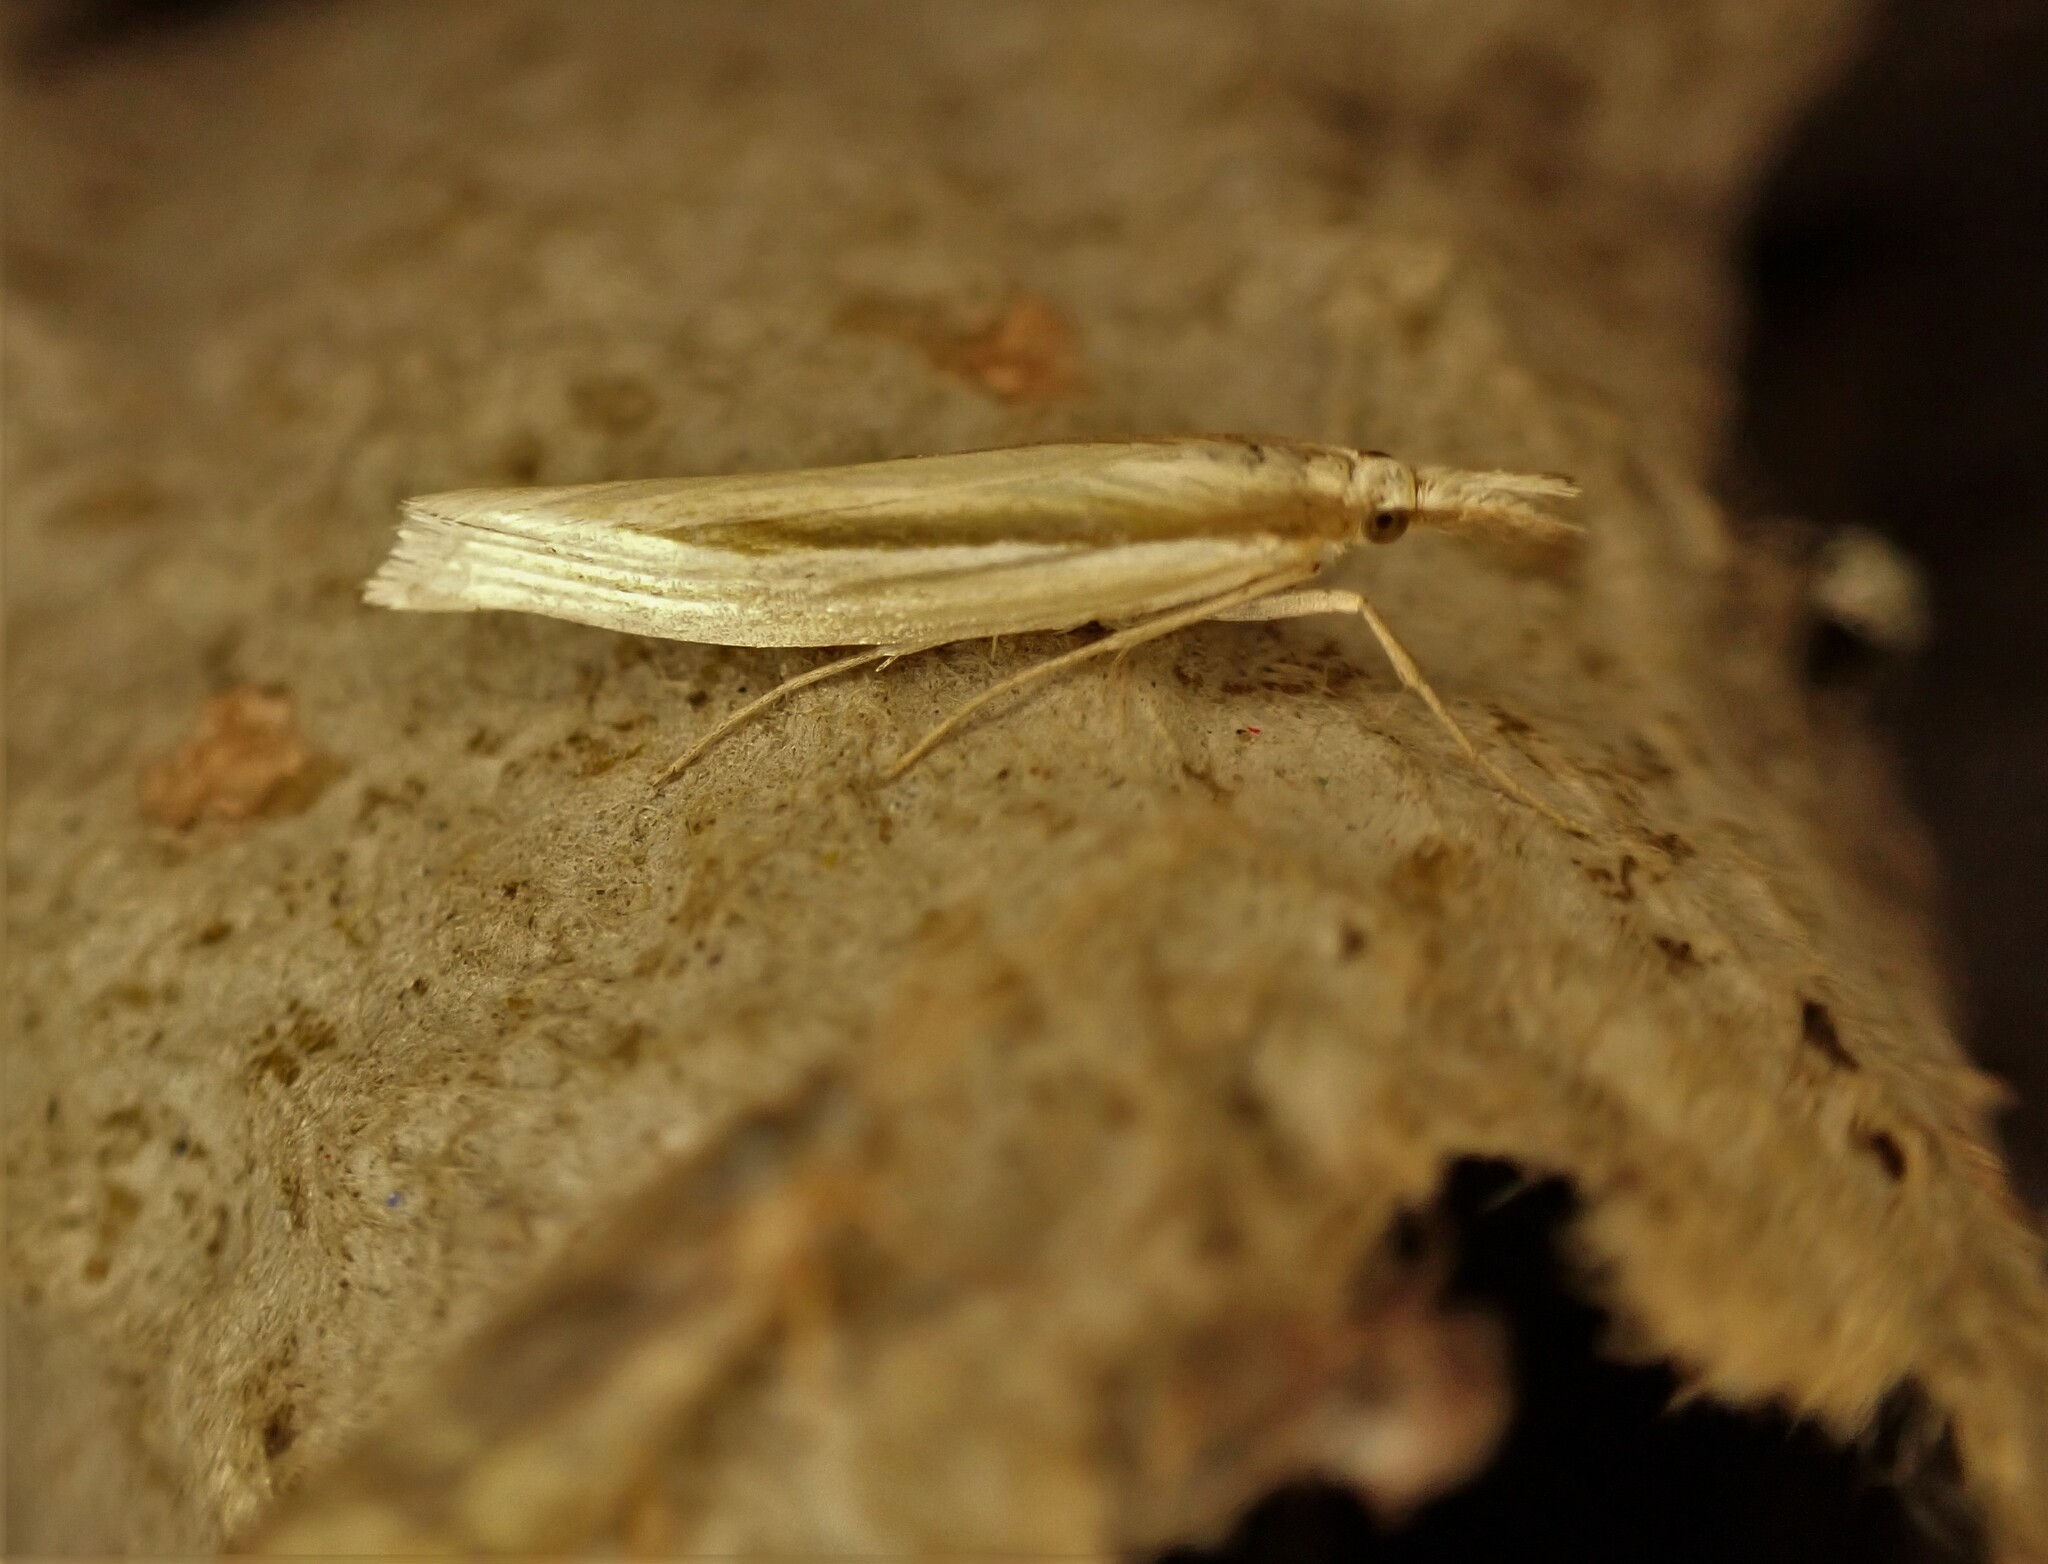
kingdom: Animalia
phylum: Arthropoda
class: Insecta
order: Lepidoptera
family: Crambidae
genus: Orocrambus
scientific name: Orocrambus ramosellus
